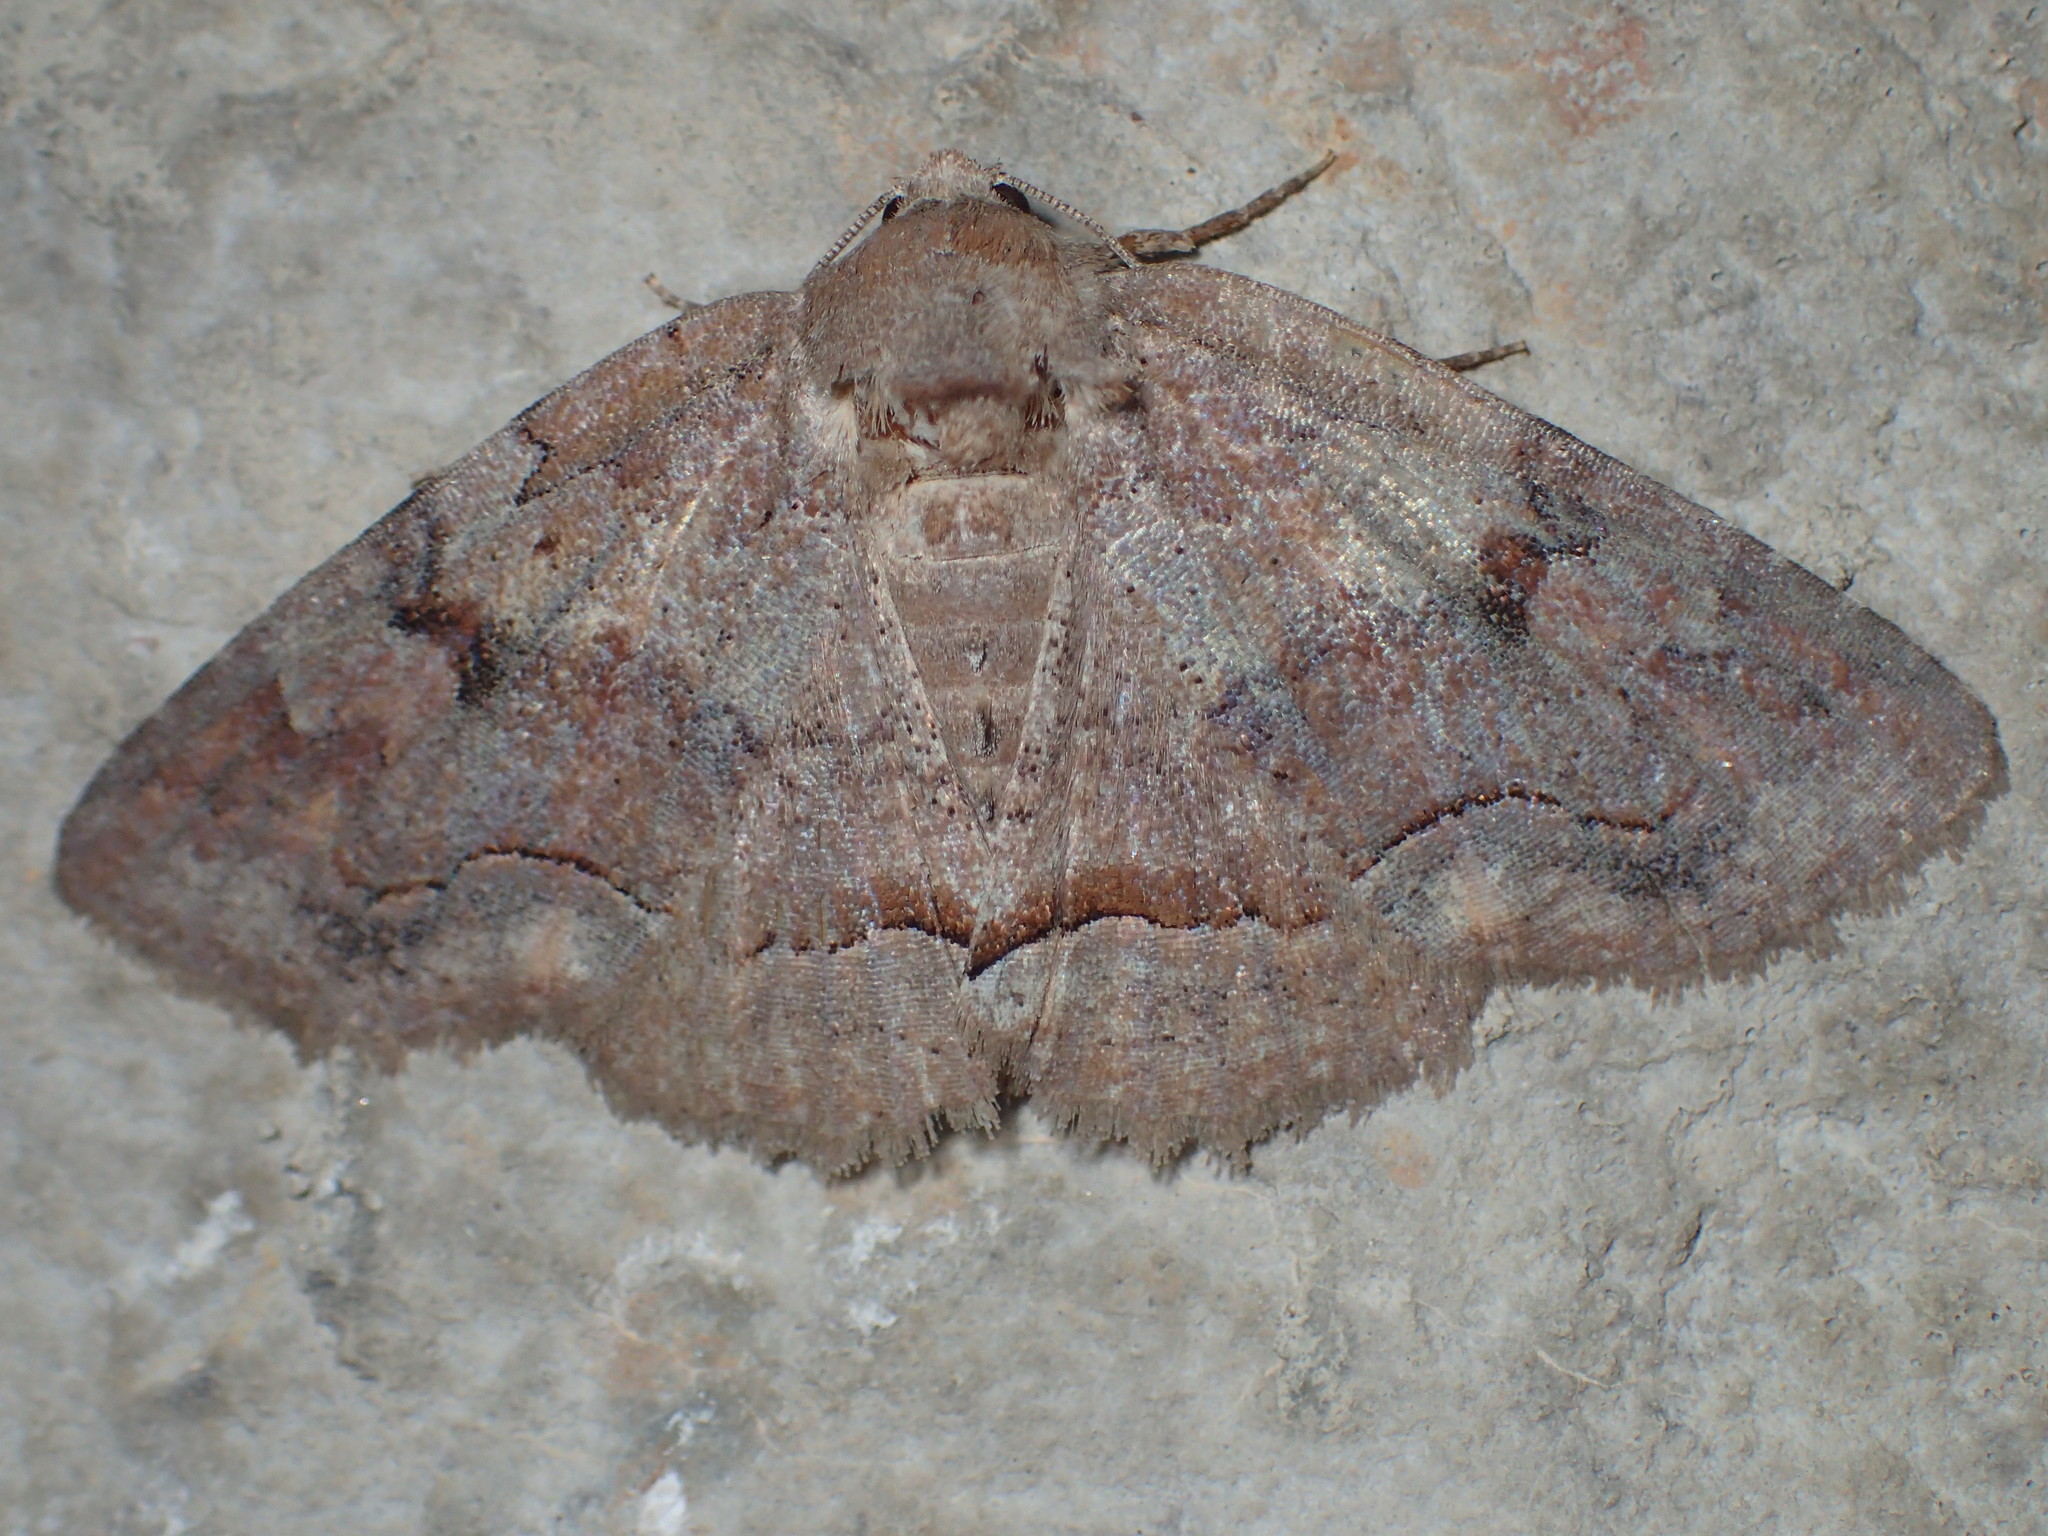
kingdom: Animalia
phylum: Arthropoda
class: Insecta
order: Lepidoptera
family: Erebidae
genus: Zale
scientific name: Zale submediana
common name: Gray spring zale
